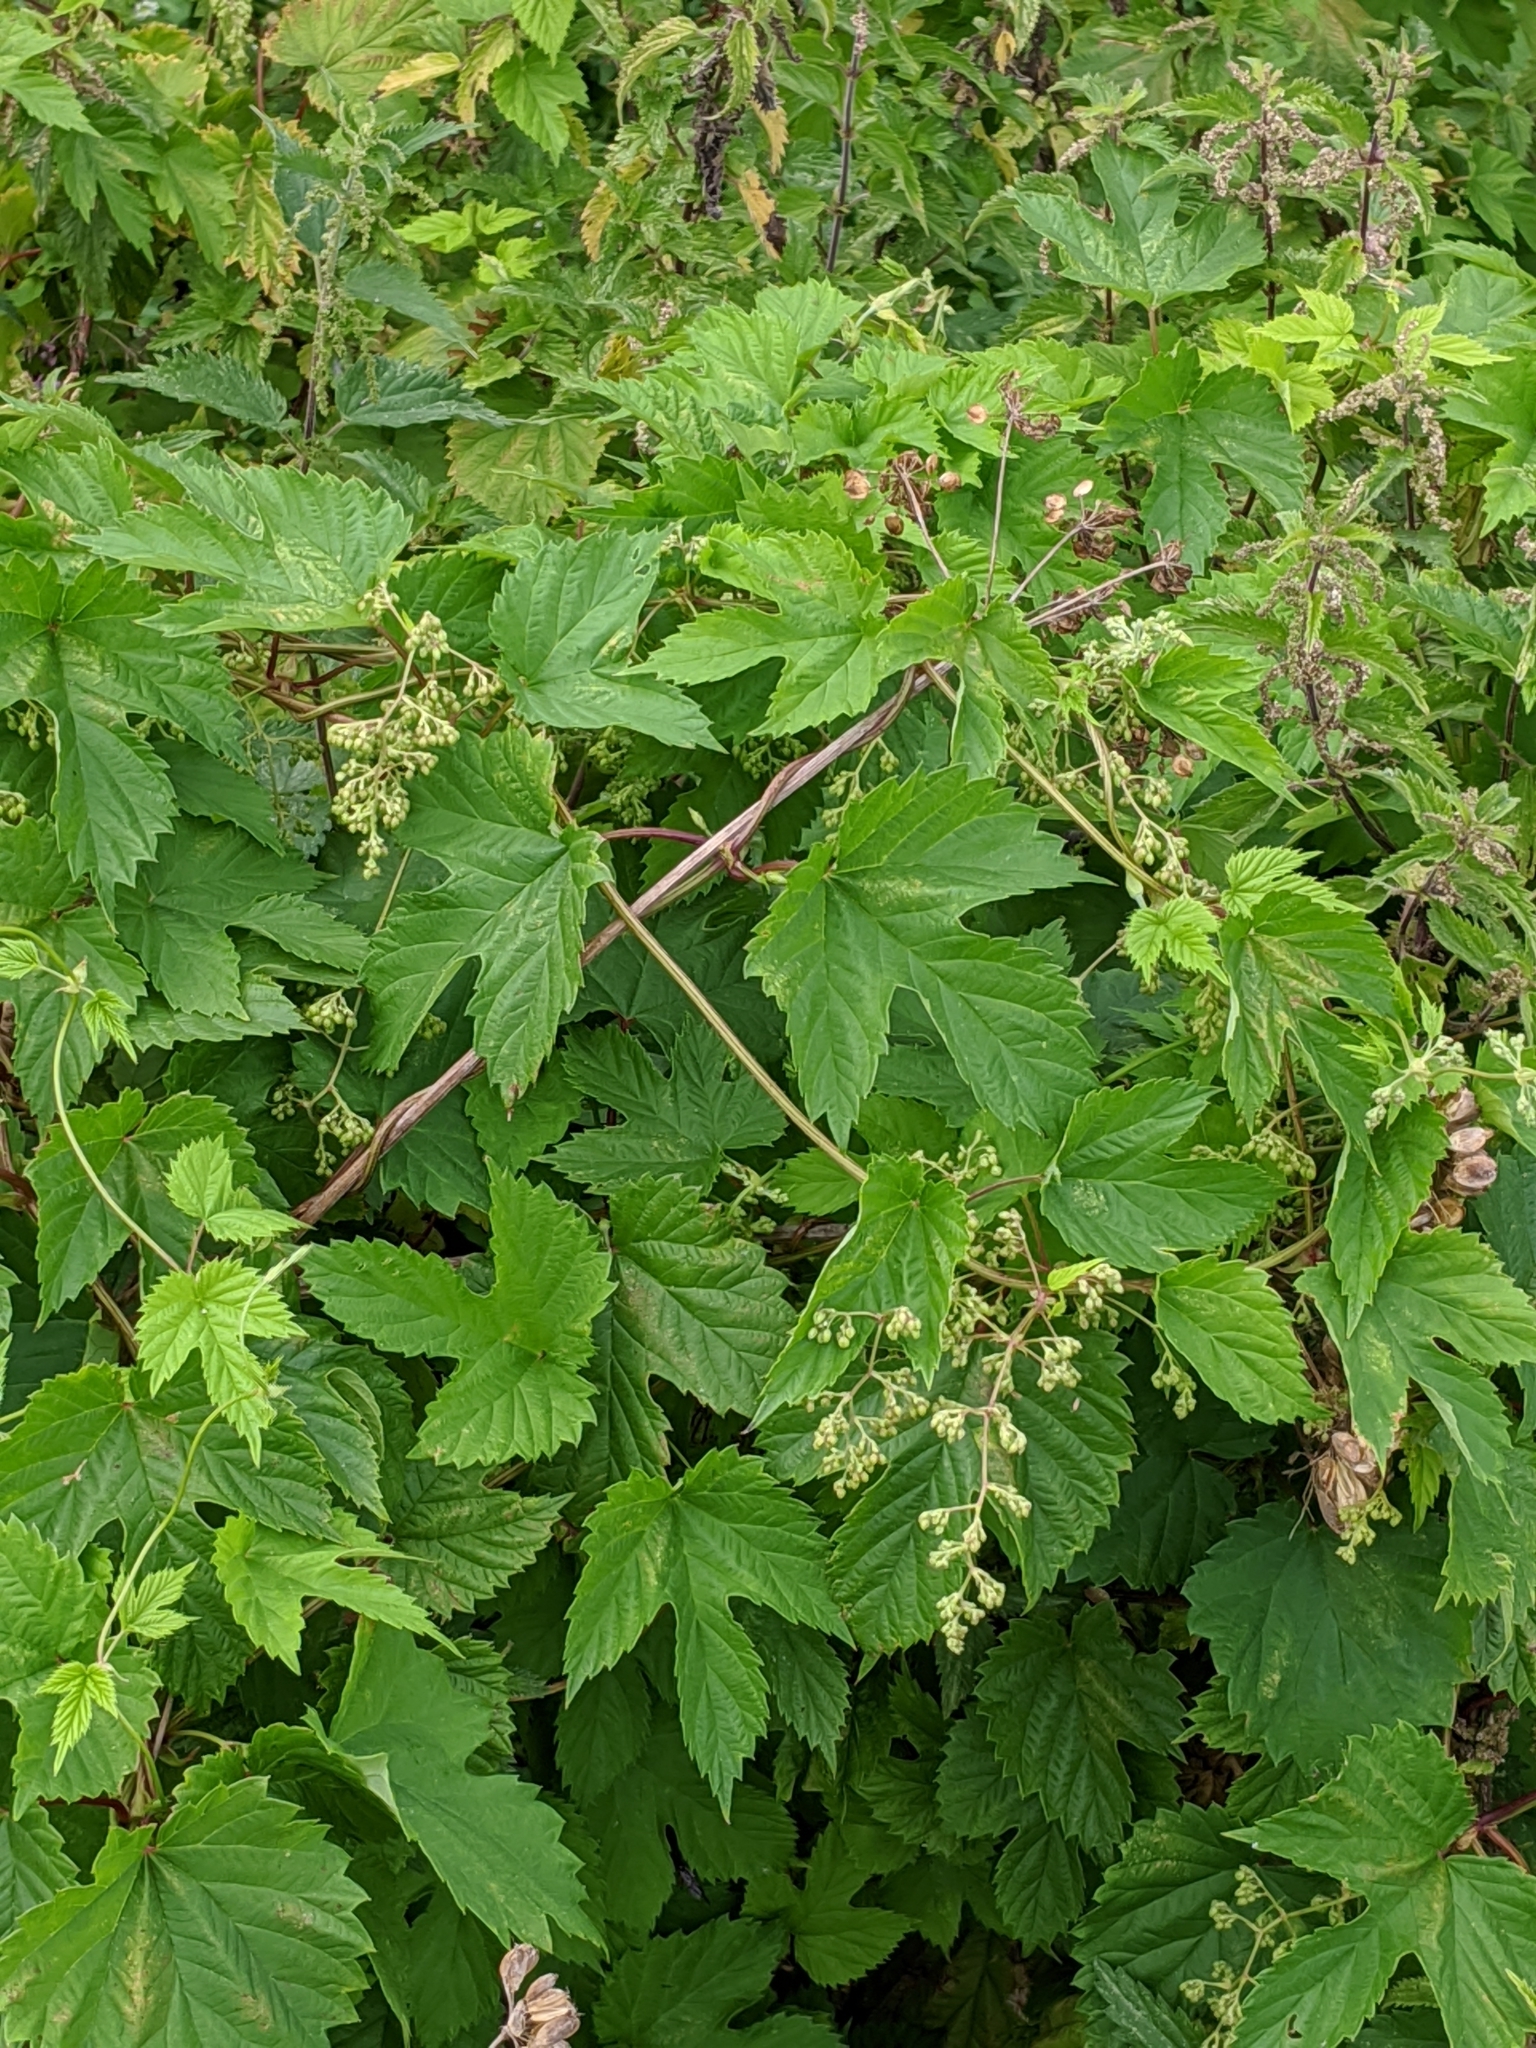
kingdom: Plantae
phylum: Tracheophyta
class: Magnoliopsida
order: Rosales
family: Cannabaceae
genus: Humulus
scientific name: Humulus lupulus
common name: Hop
